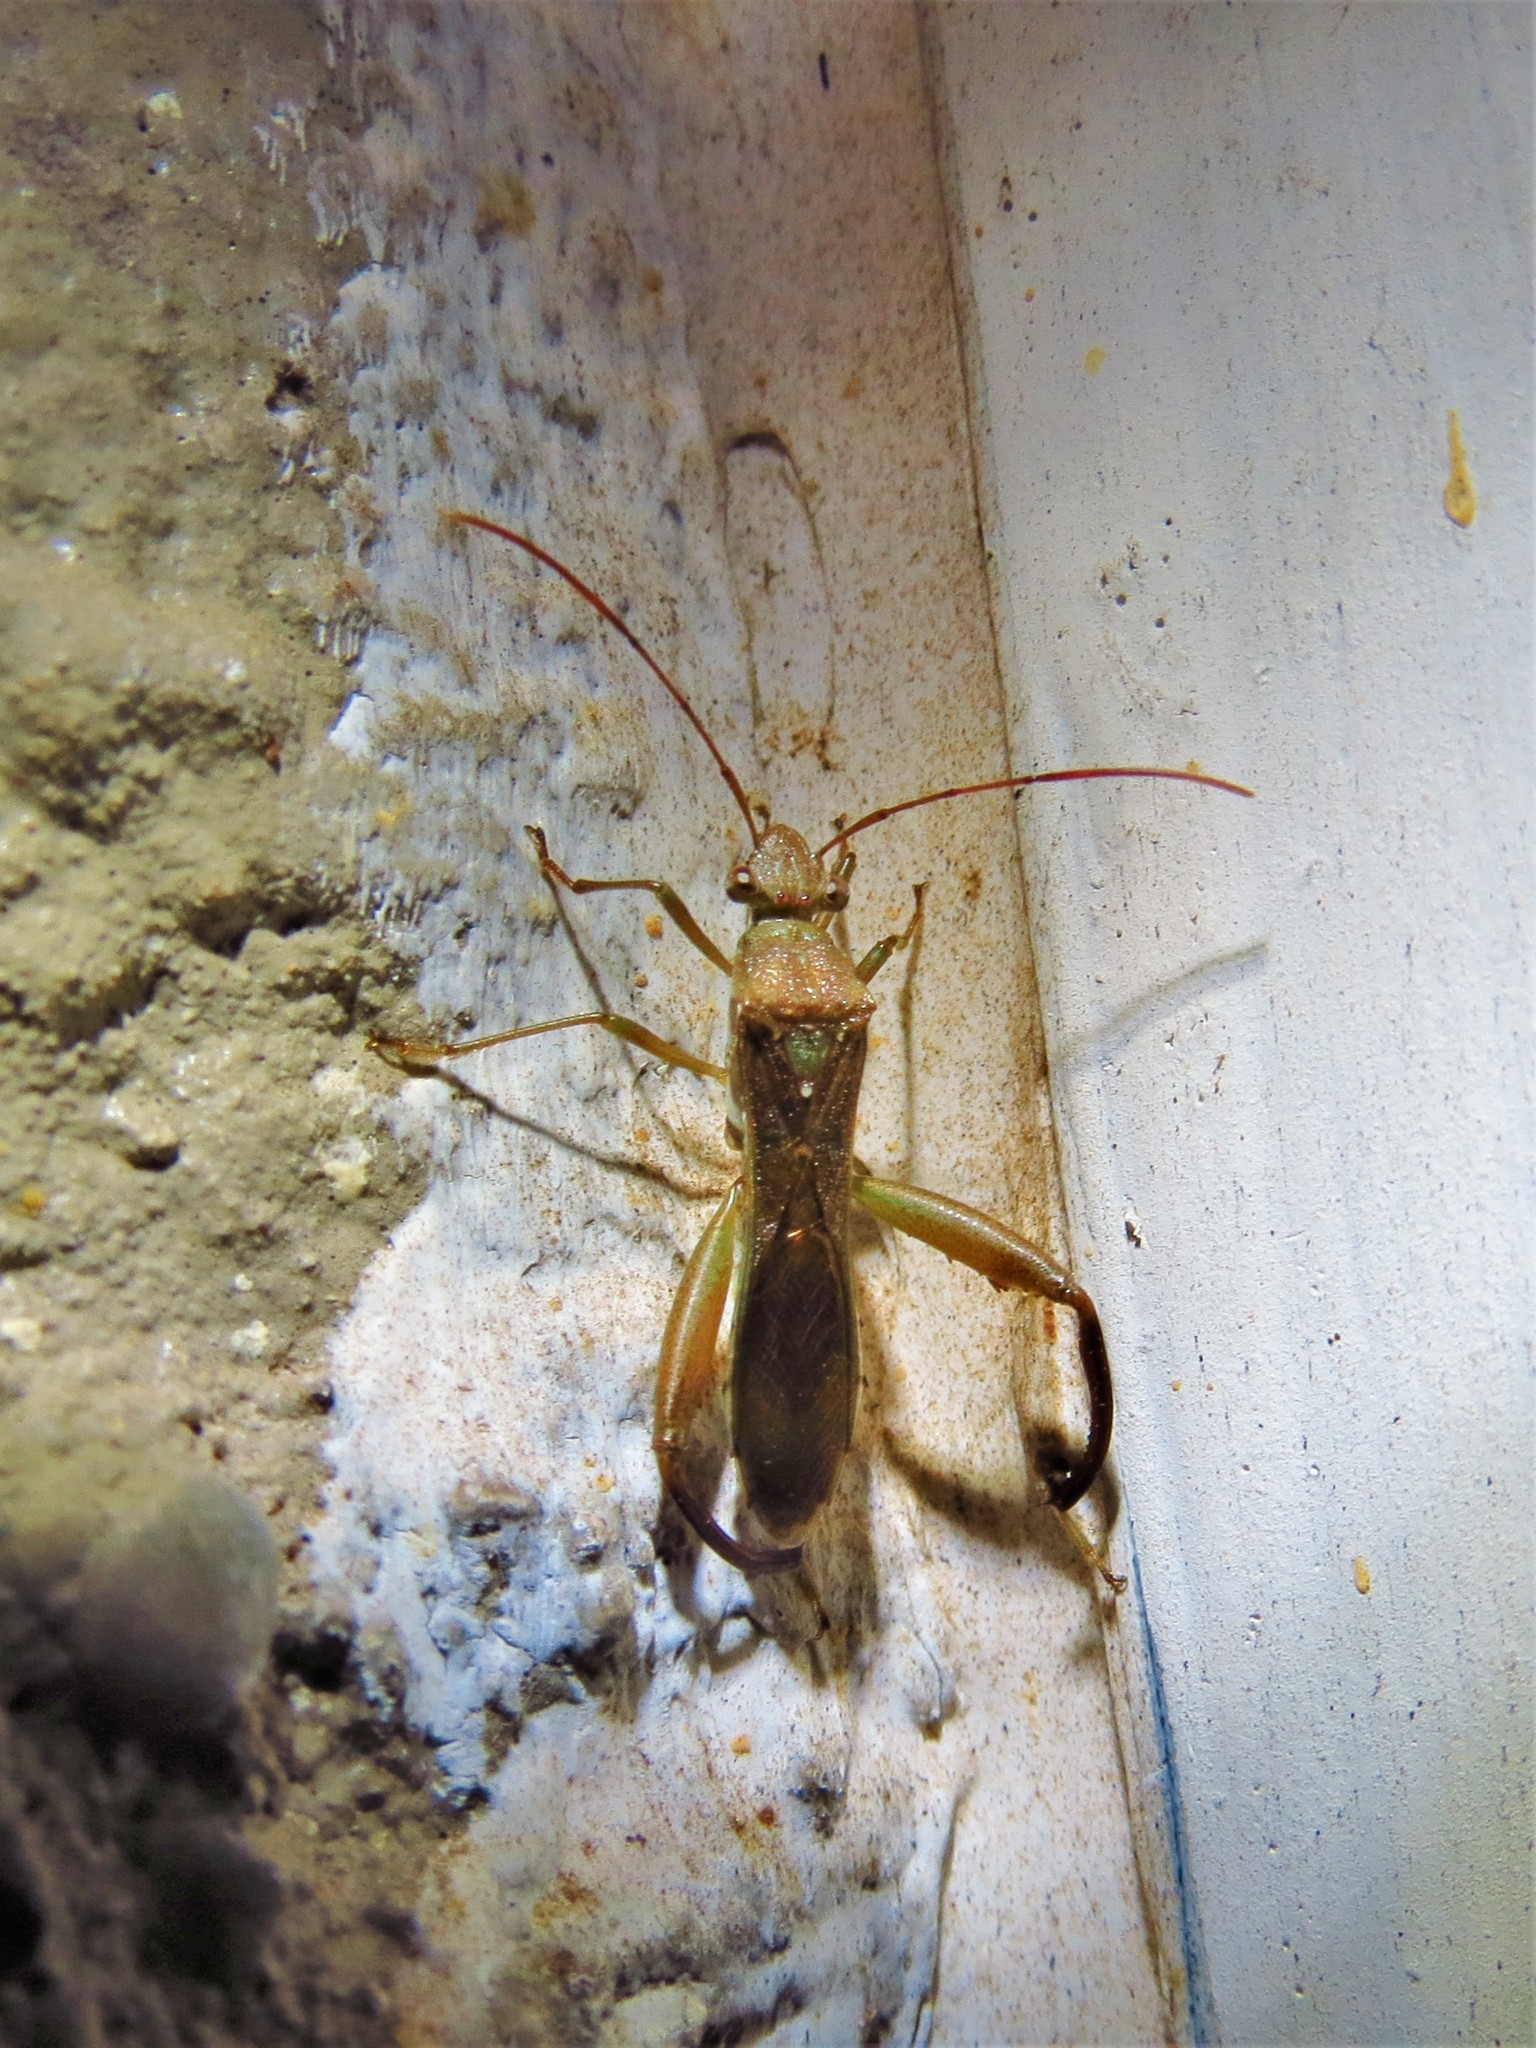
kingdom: Animalia
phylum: Arthropoda
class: Insecta
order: Hemiptera
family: Alydidae
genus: Hyalymenus
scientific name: Hyalymenus tarsatus
